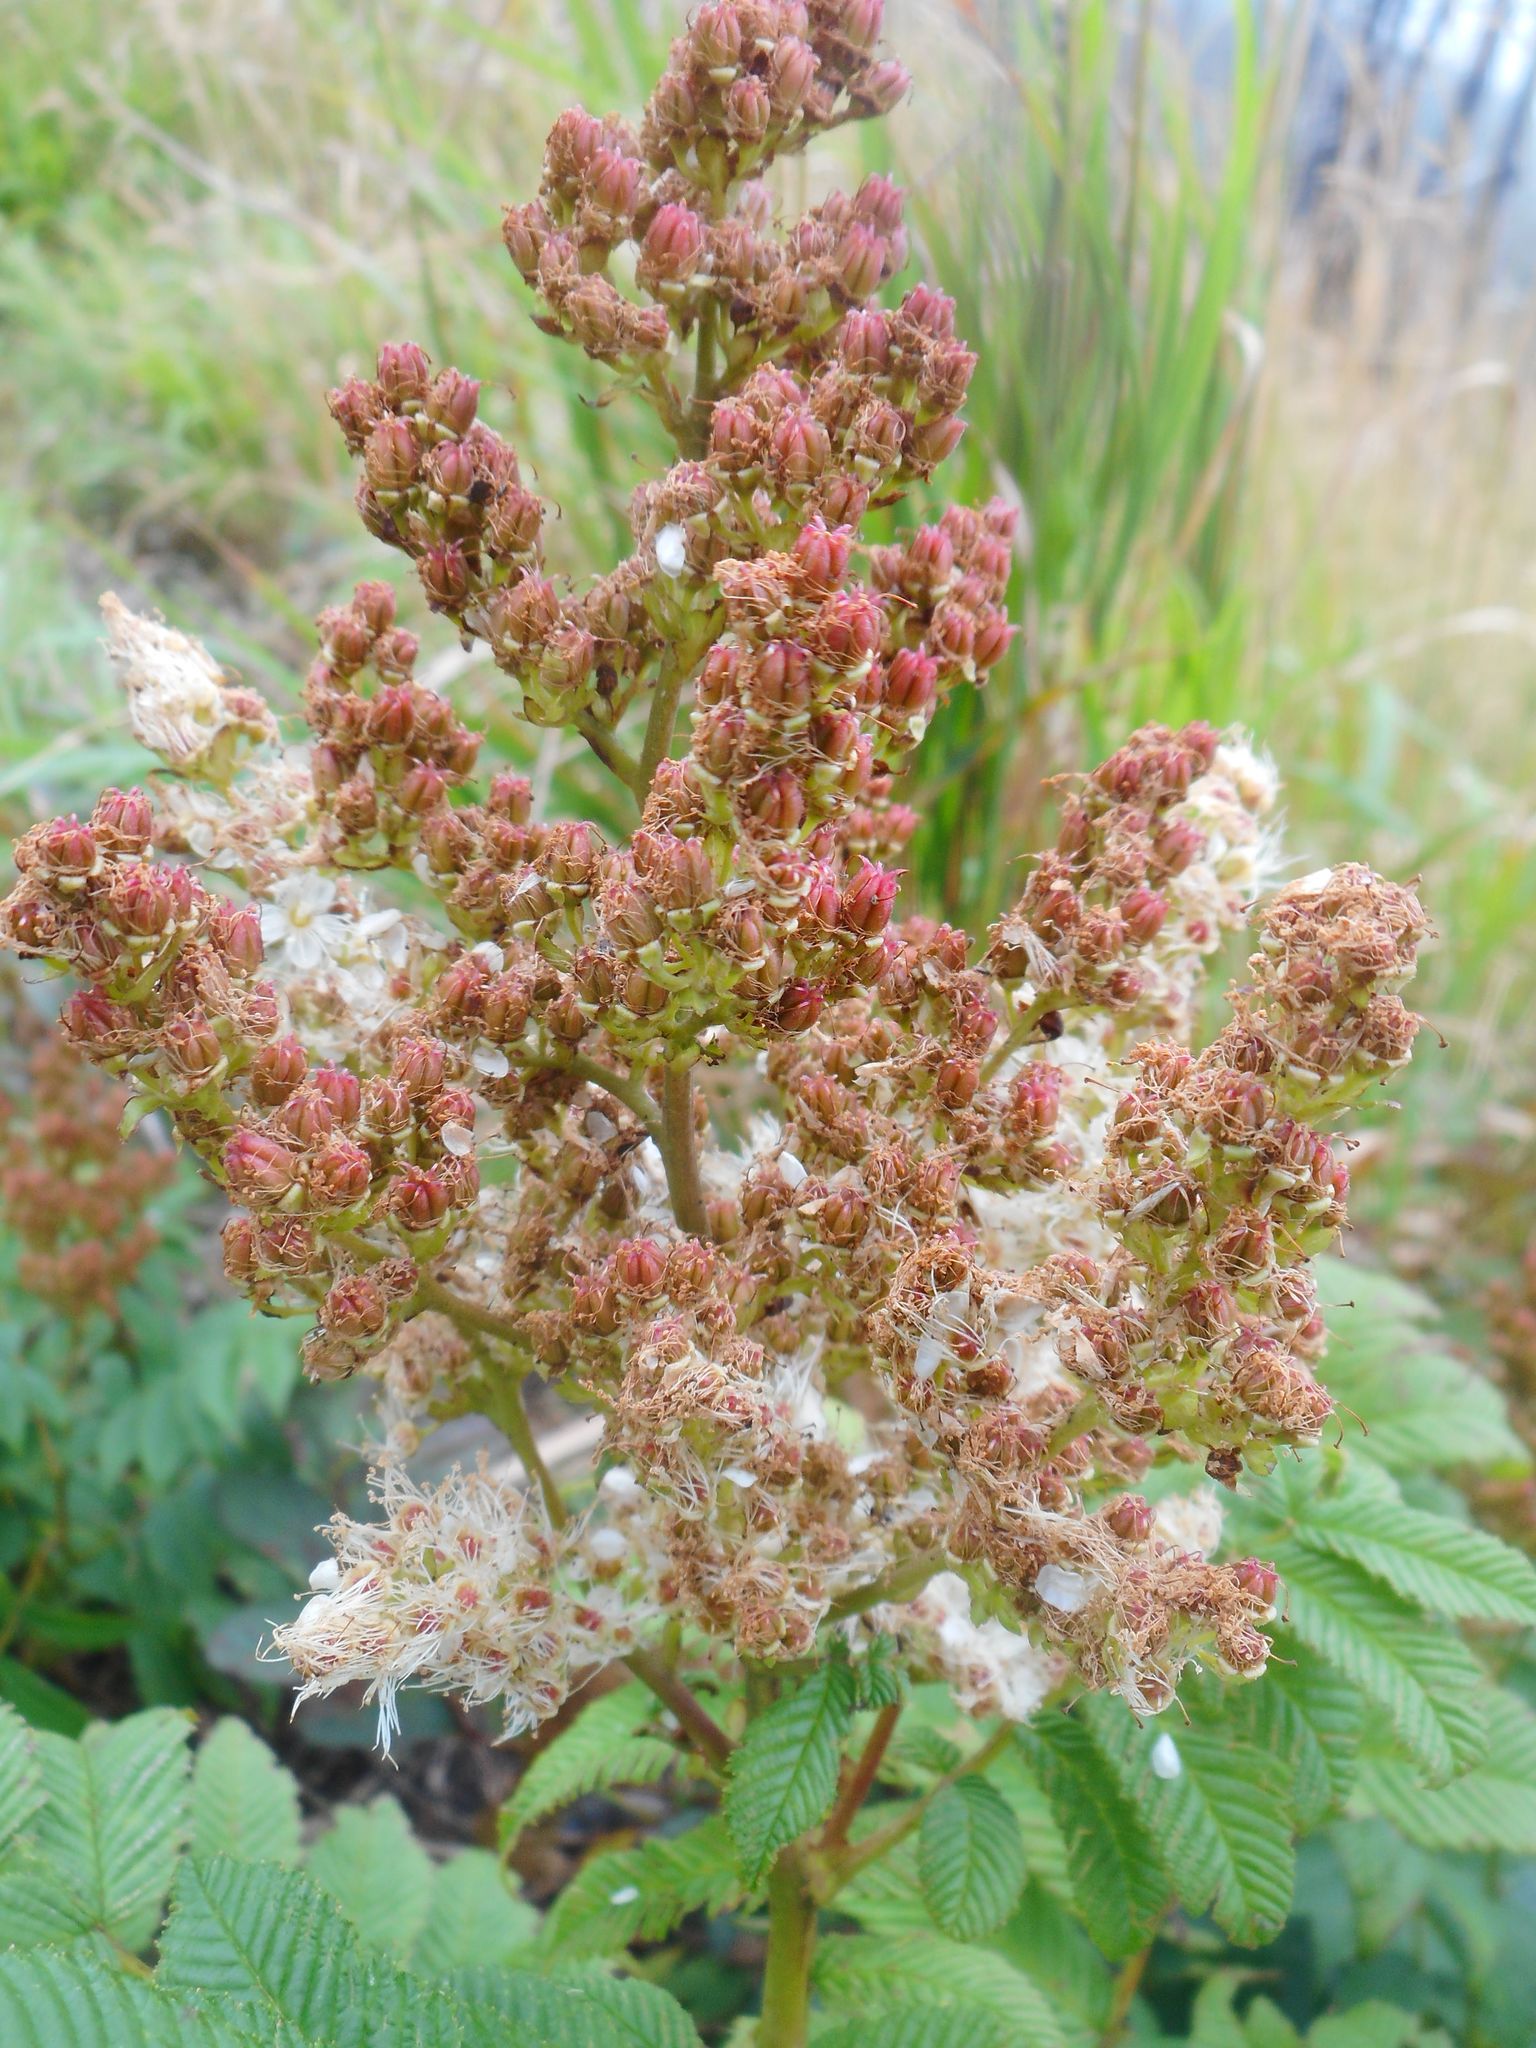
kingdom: Plantae
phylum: Tracheophyta
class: Magnoliopsida
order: Rosales
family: Rosaceae
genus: Sorbaria
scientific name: Sorbaria sorbifolia
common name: False spiraea
